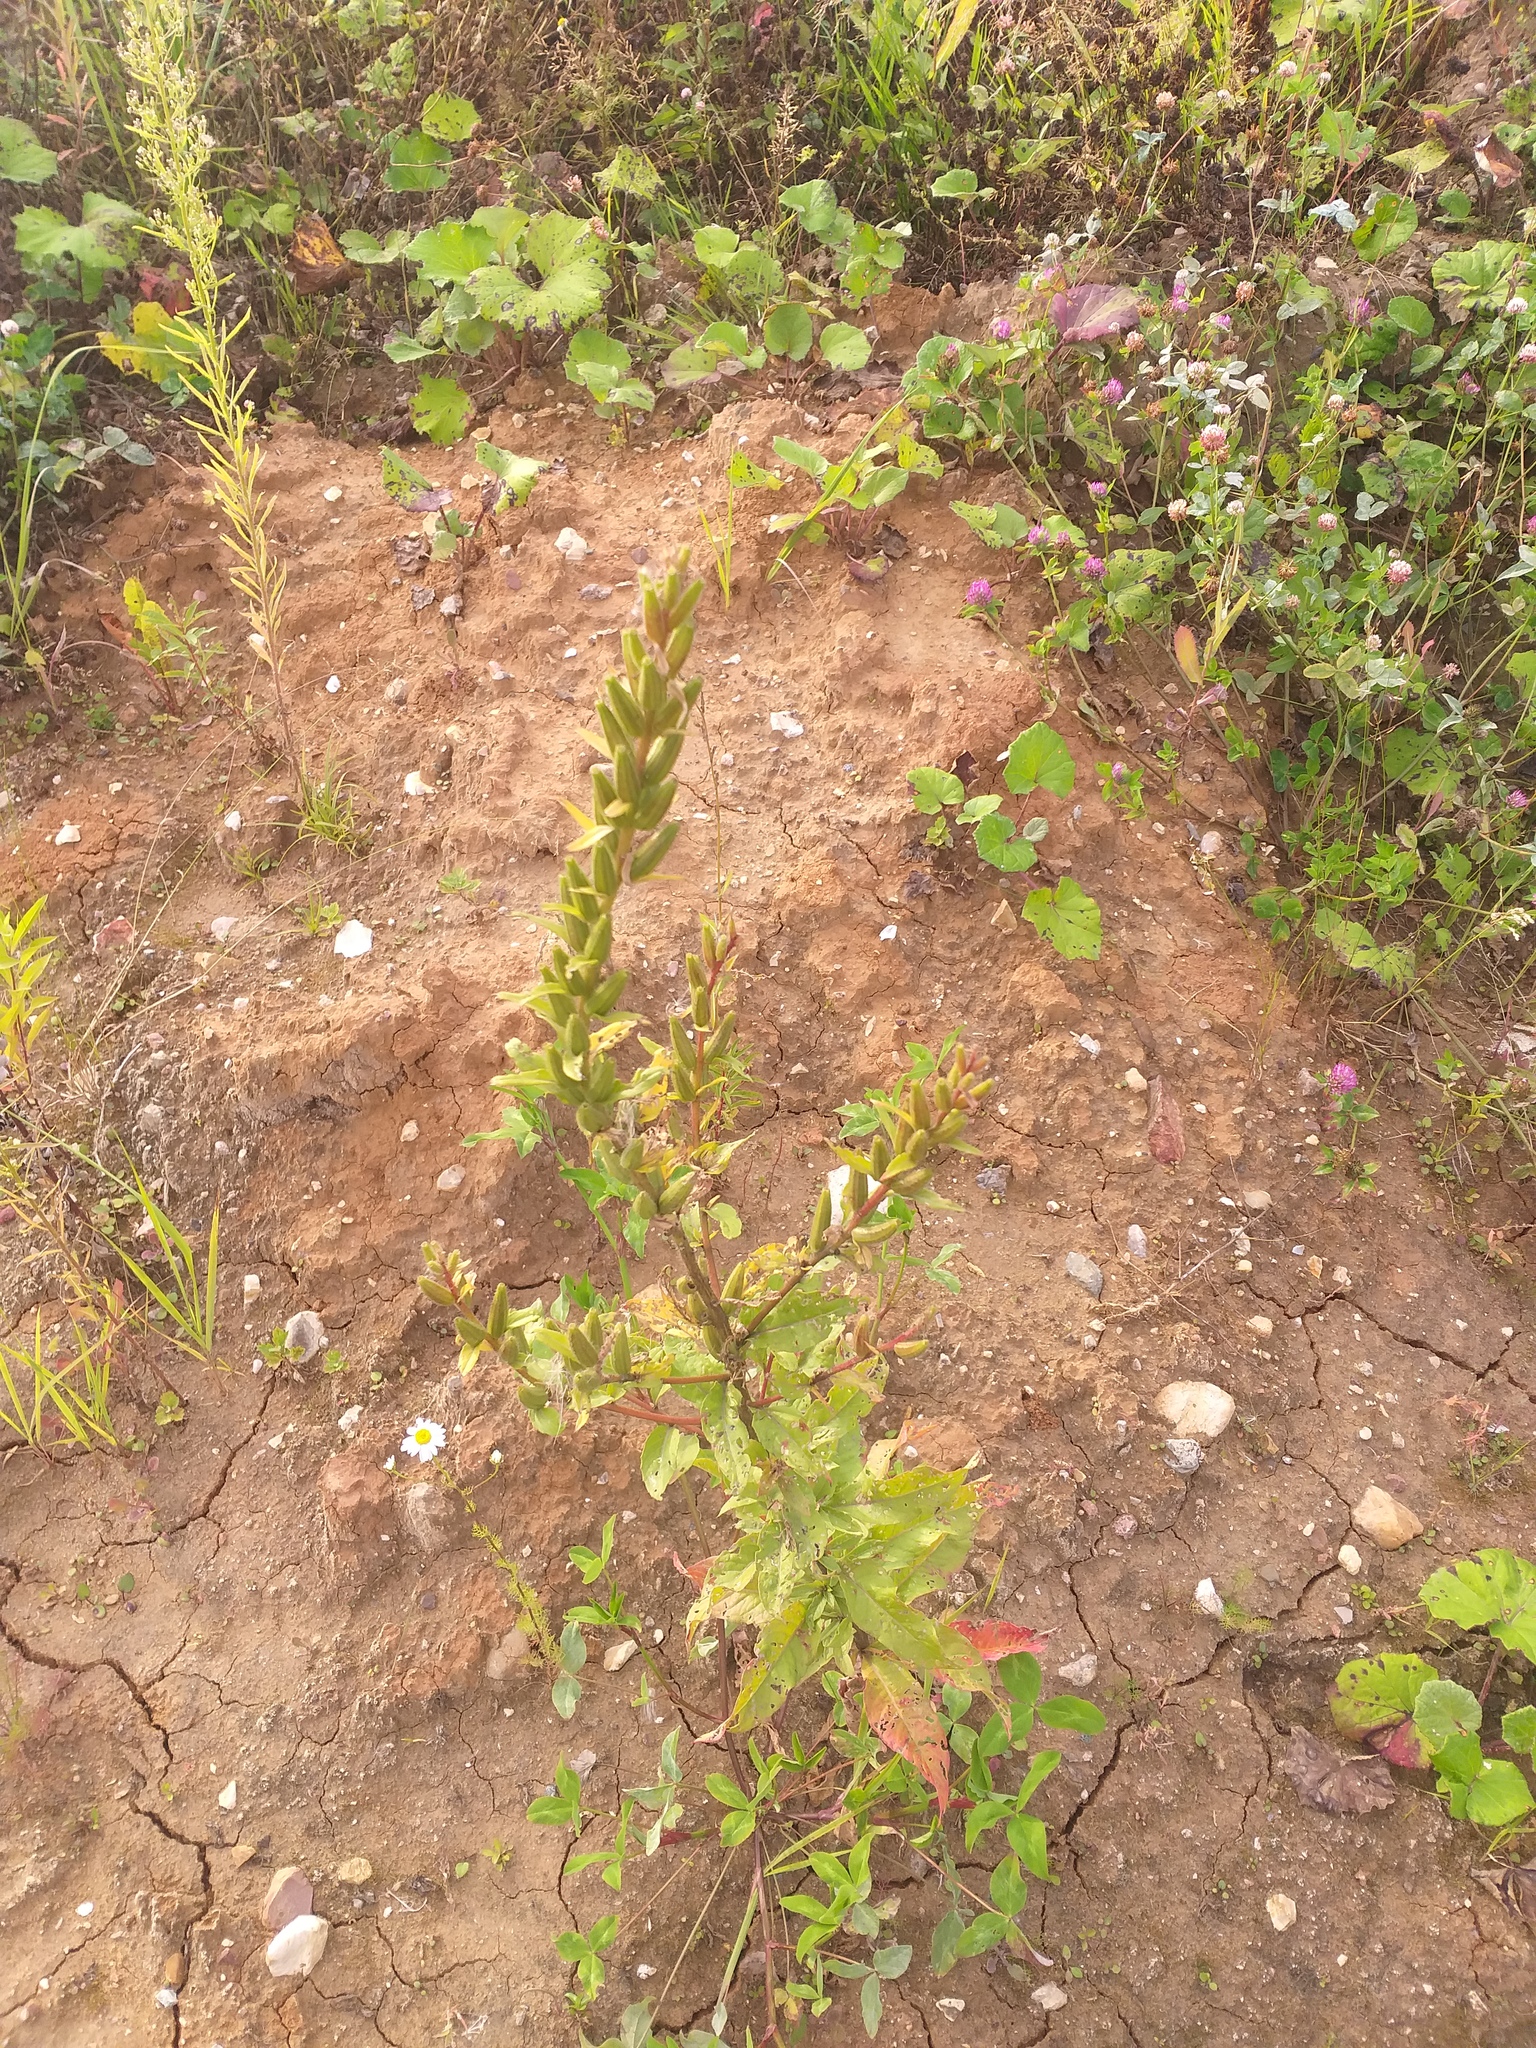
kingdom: Plantae
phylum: Tracheophyta
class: Magnoliopsida
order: Myrtales
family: Onagraceae
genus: Oenothera
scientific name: Oenothera rubricaulis
